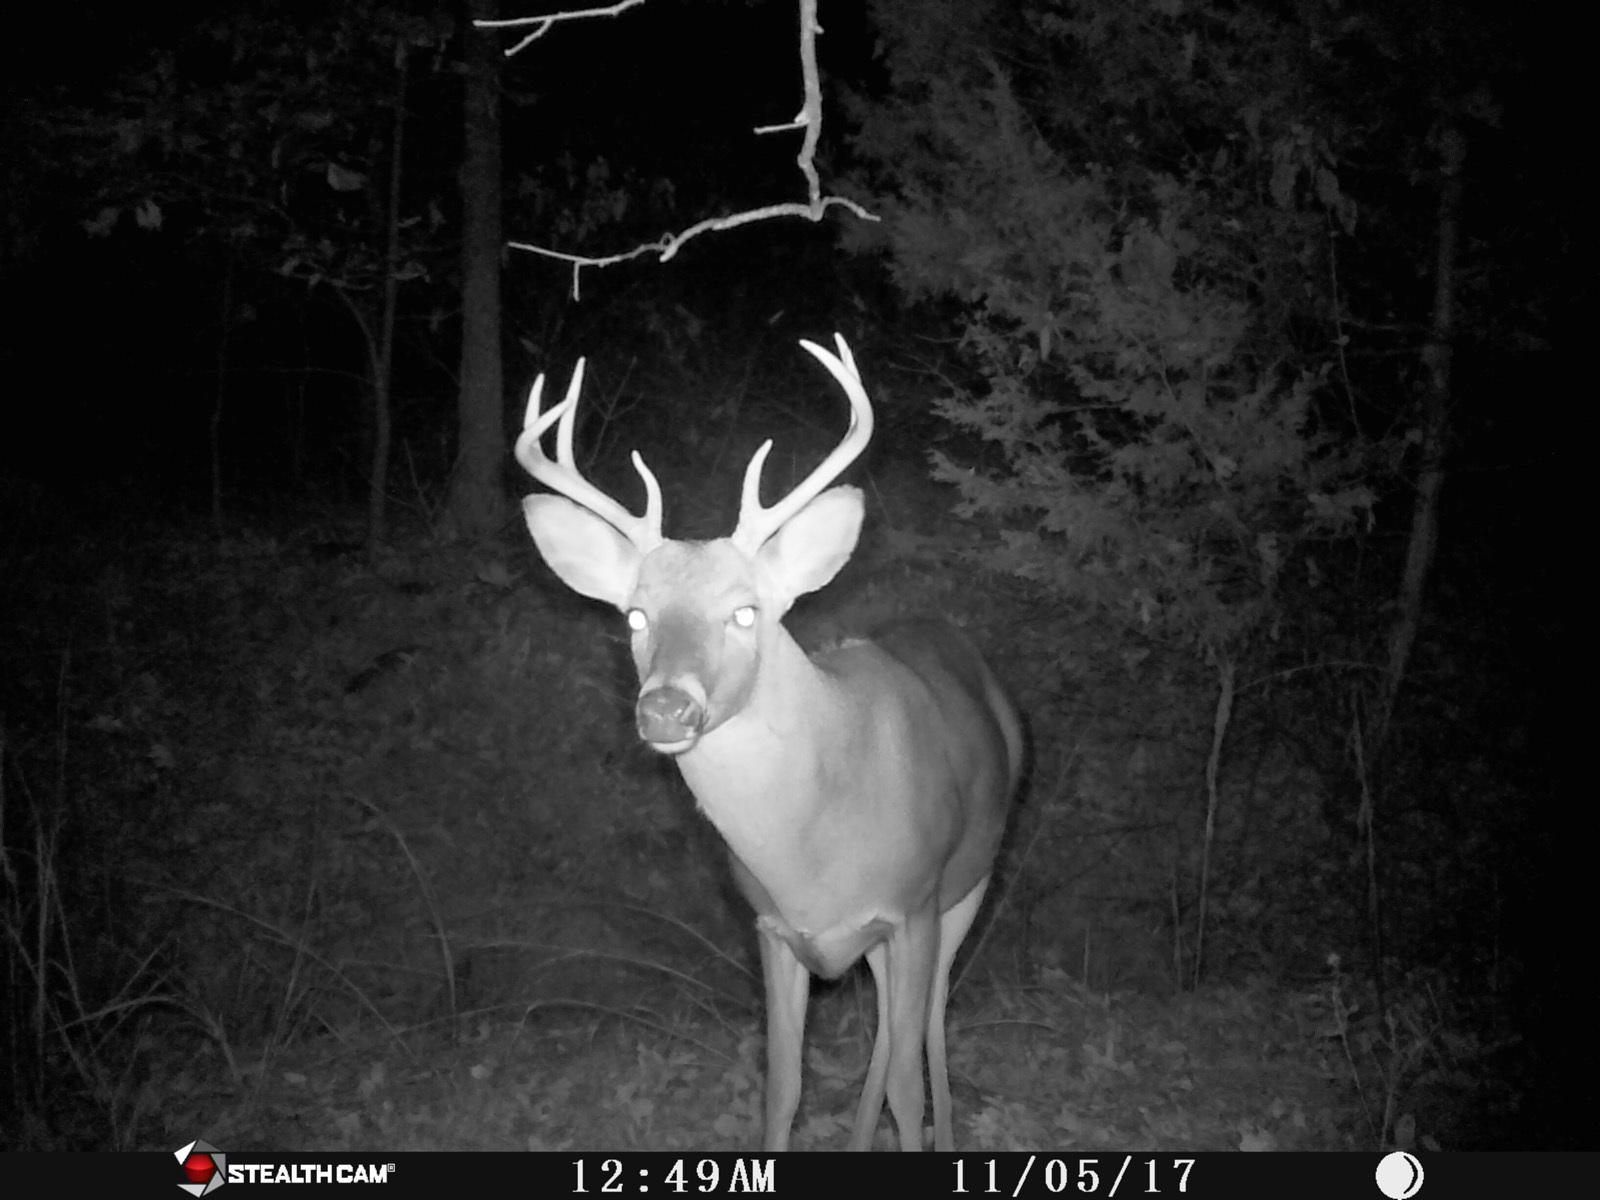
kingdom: Animalia
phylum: Chordata
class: Mammalia
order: Artiodactyla
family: Cervidae
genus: Odocoileus
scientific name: Odocoileus virginianus
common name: White-tailed deer
